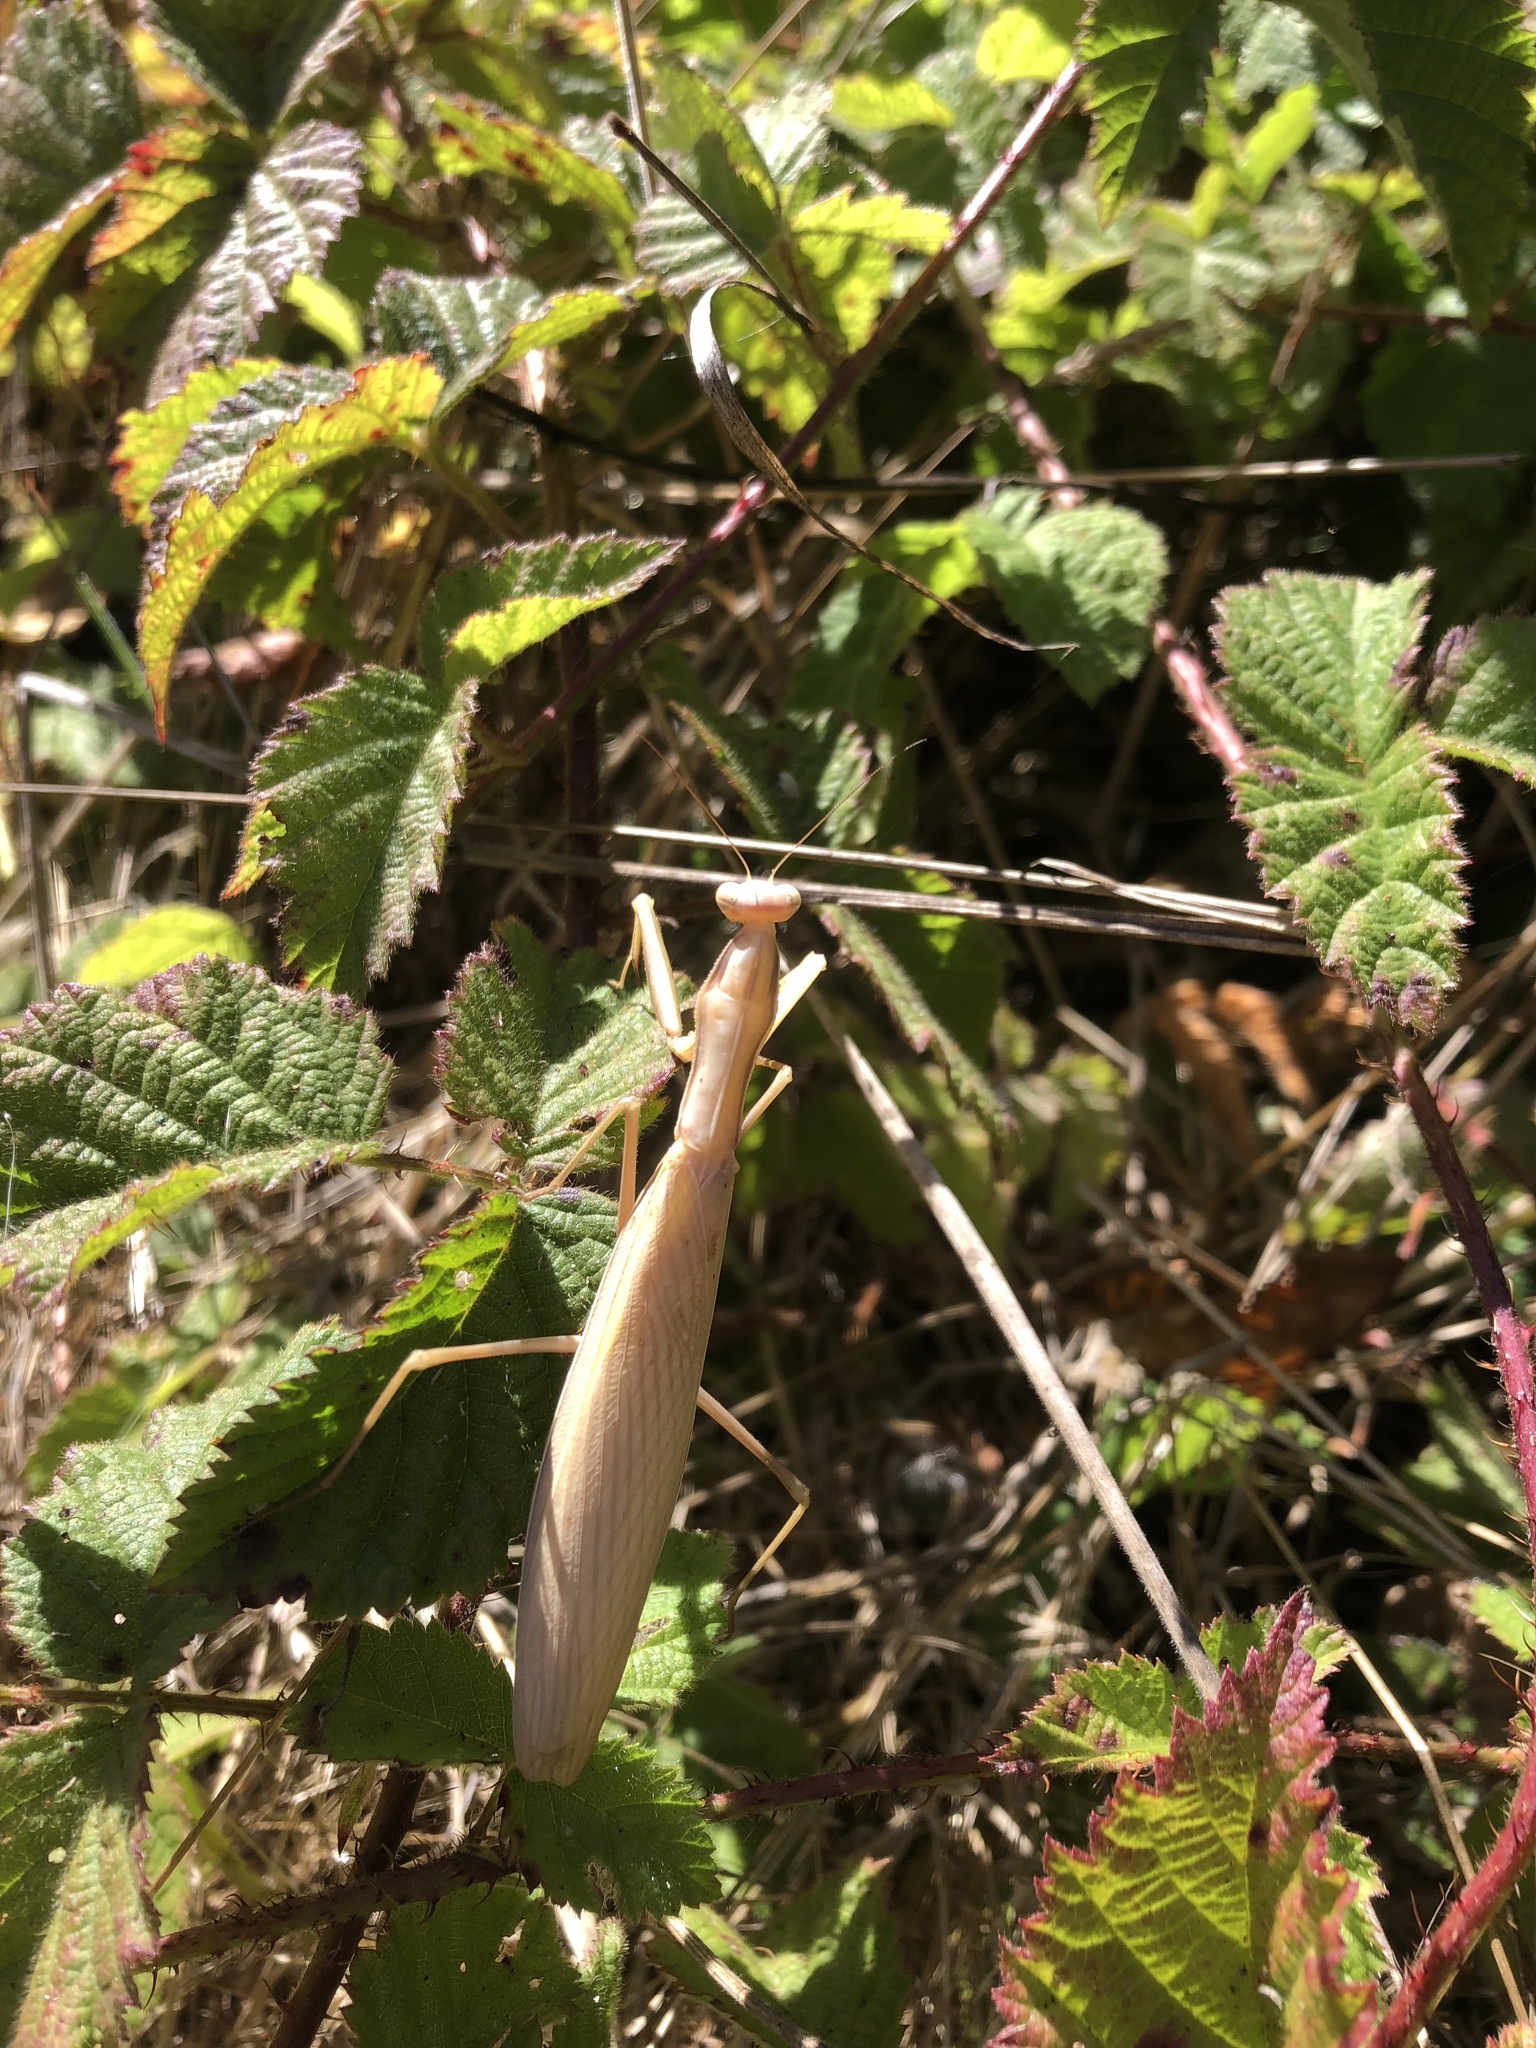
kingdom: Animalia
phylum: Arthropoda
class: Insecta
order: Mantodea
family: Mantidae
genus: Mantis
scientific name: Mantis religiosa
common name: Praying mantis
